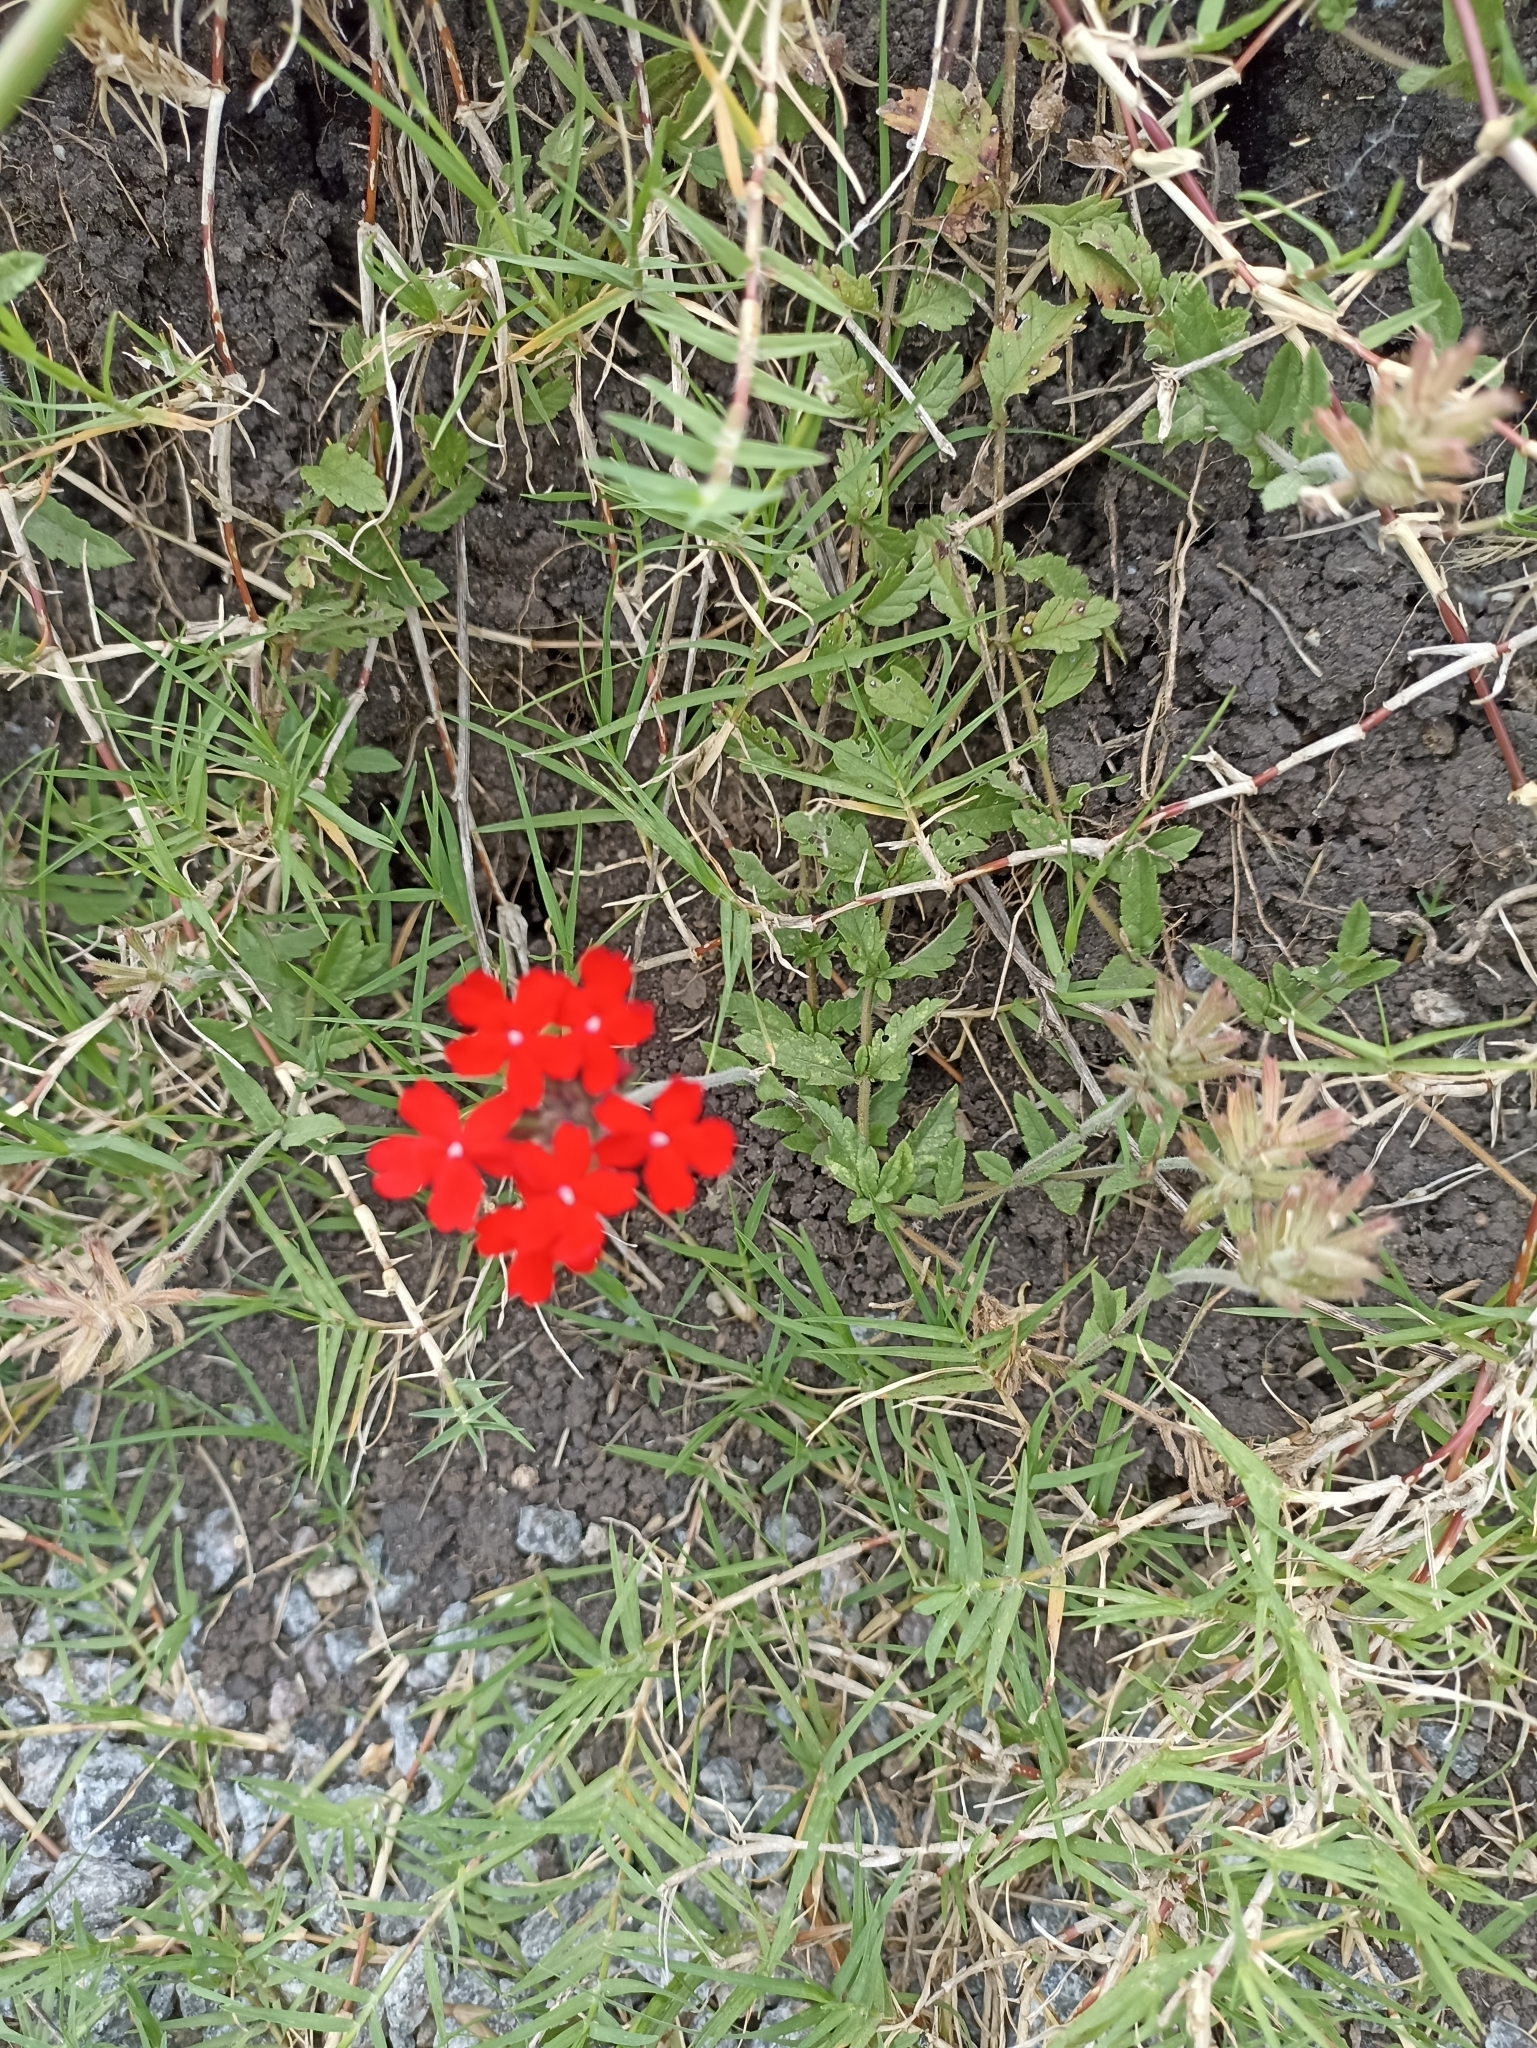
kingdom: Plantae
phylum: Tracheophyta
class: Magnoliopsida
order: Lamiales
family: Verbenaceae
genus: Verbena
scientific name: Verbena peruviana
